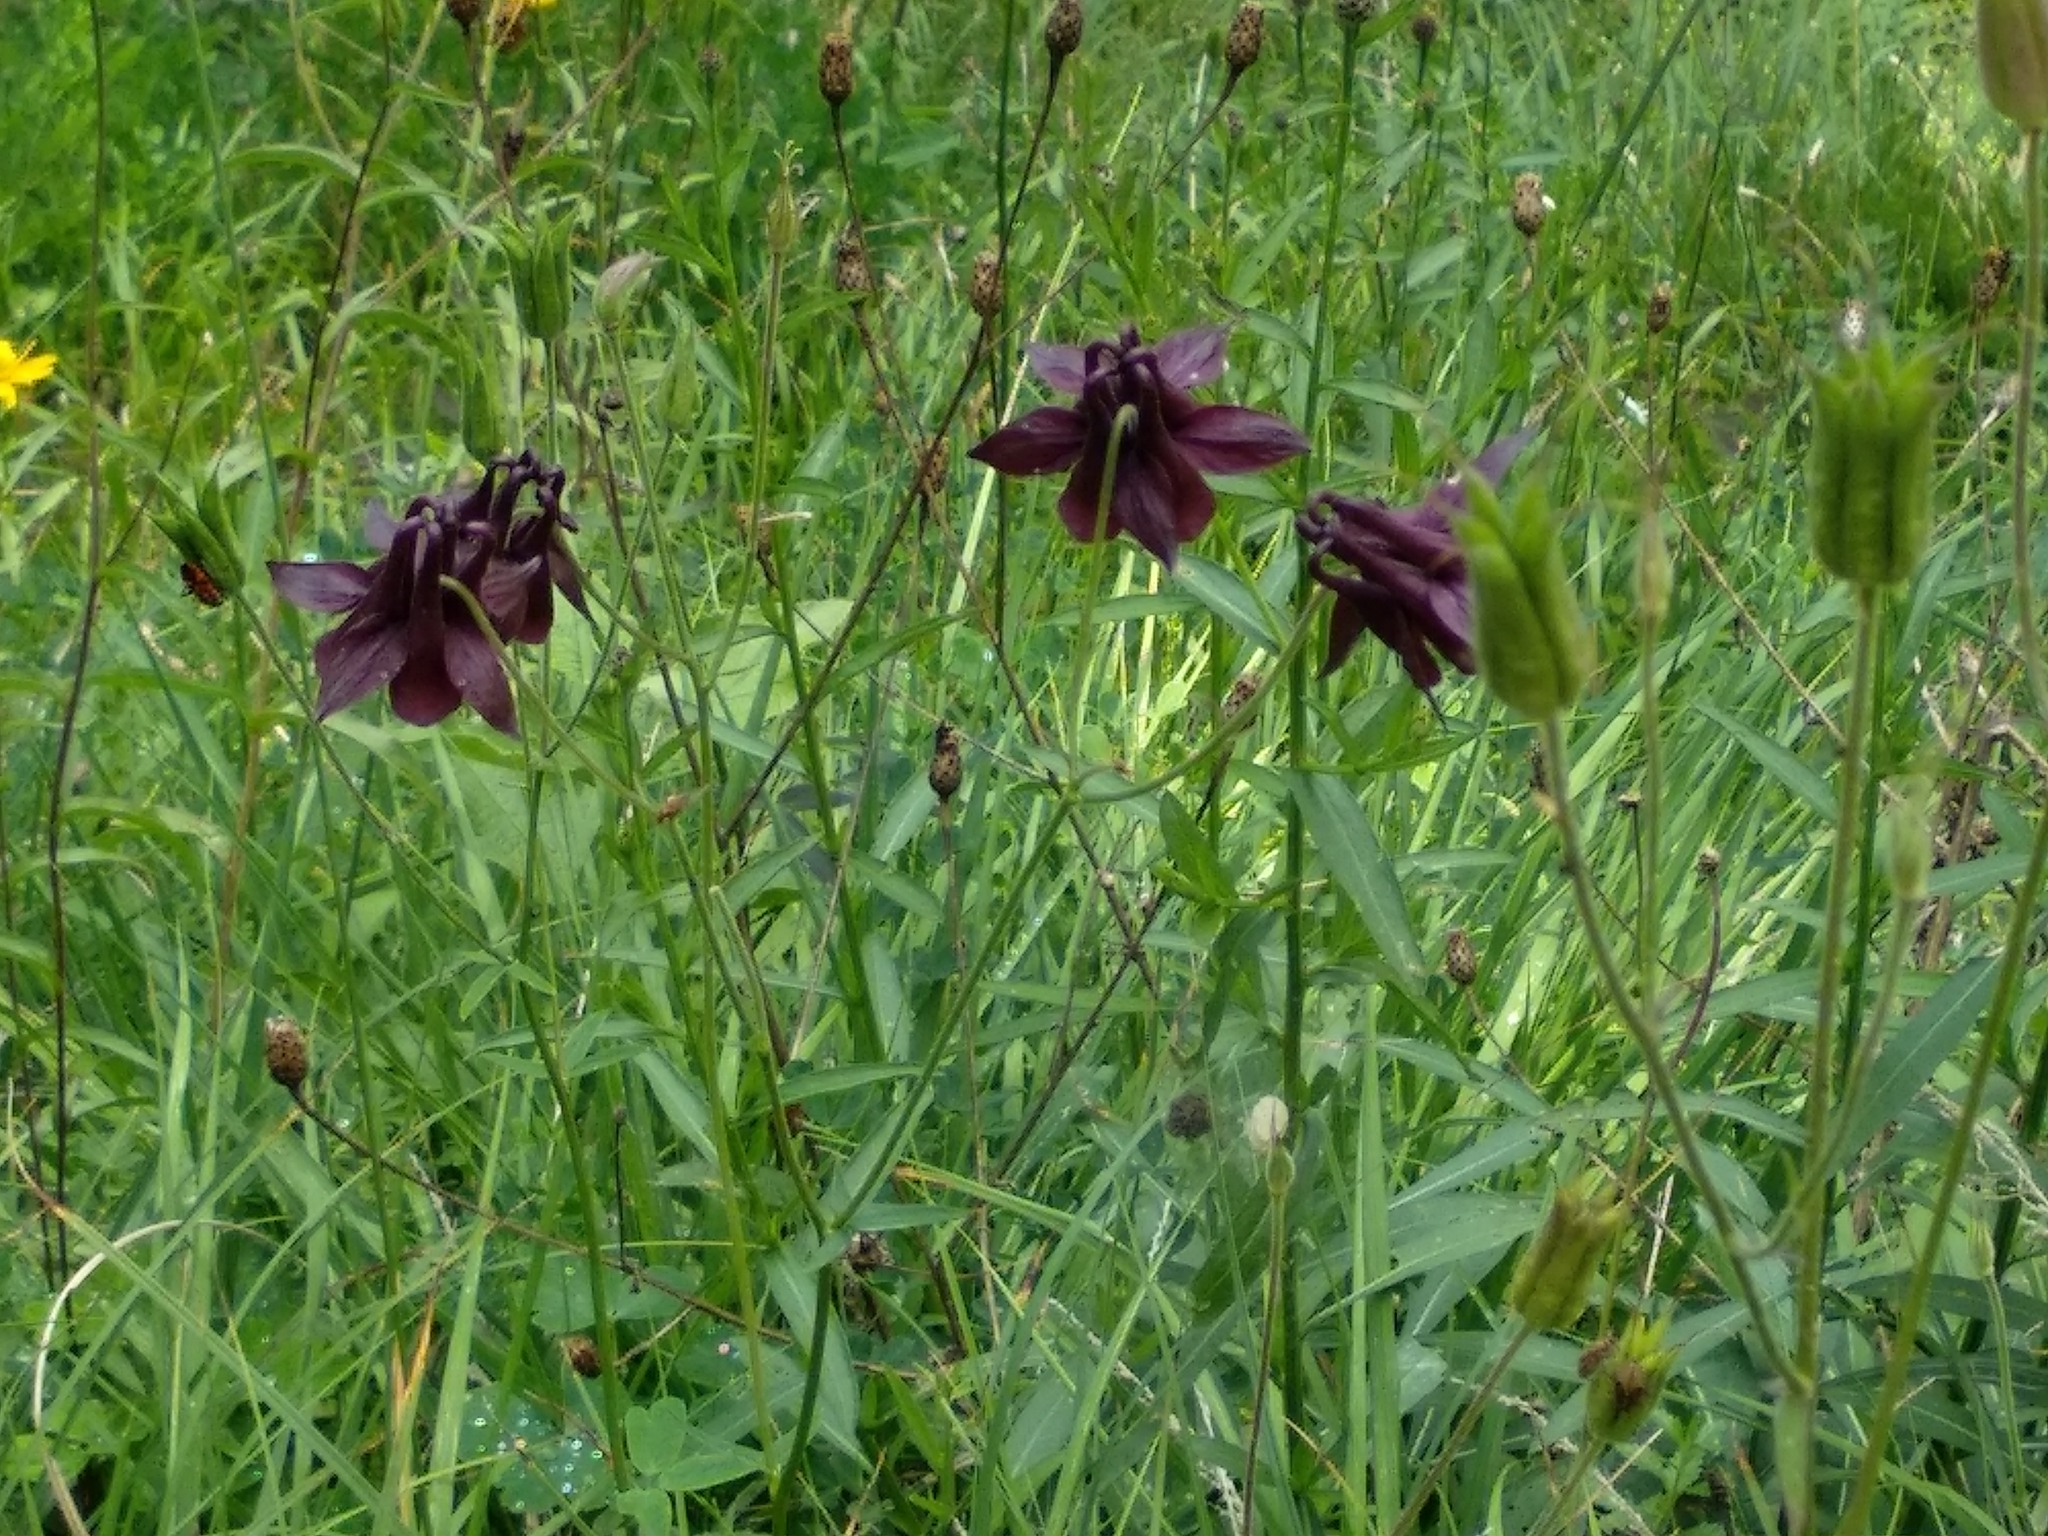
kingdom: Plantae
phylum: Tracheophyta
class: Magnoliopsida
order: Ranunculales
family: Ranunculaceae
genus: Aquilegia
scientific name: Aquilegia atrata
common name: Dark columbine
